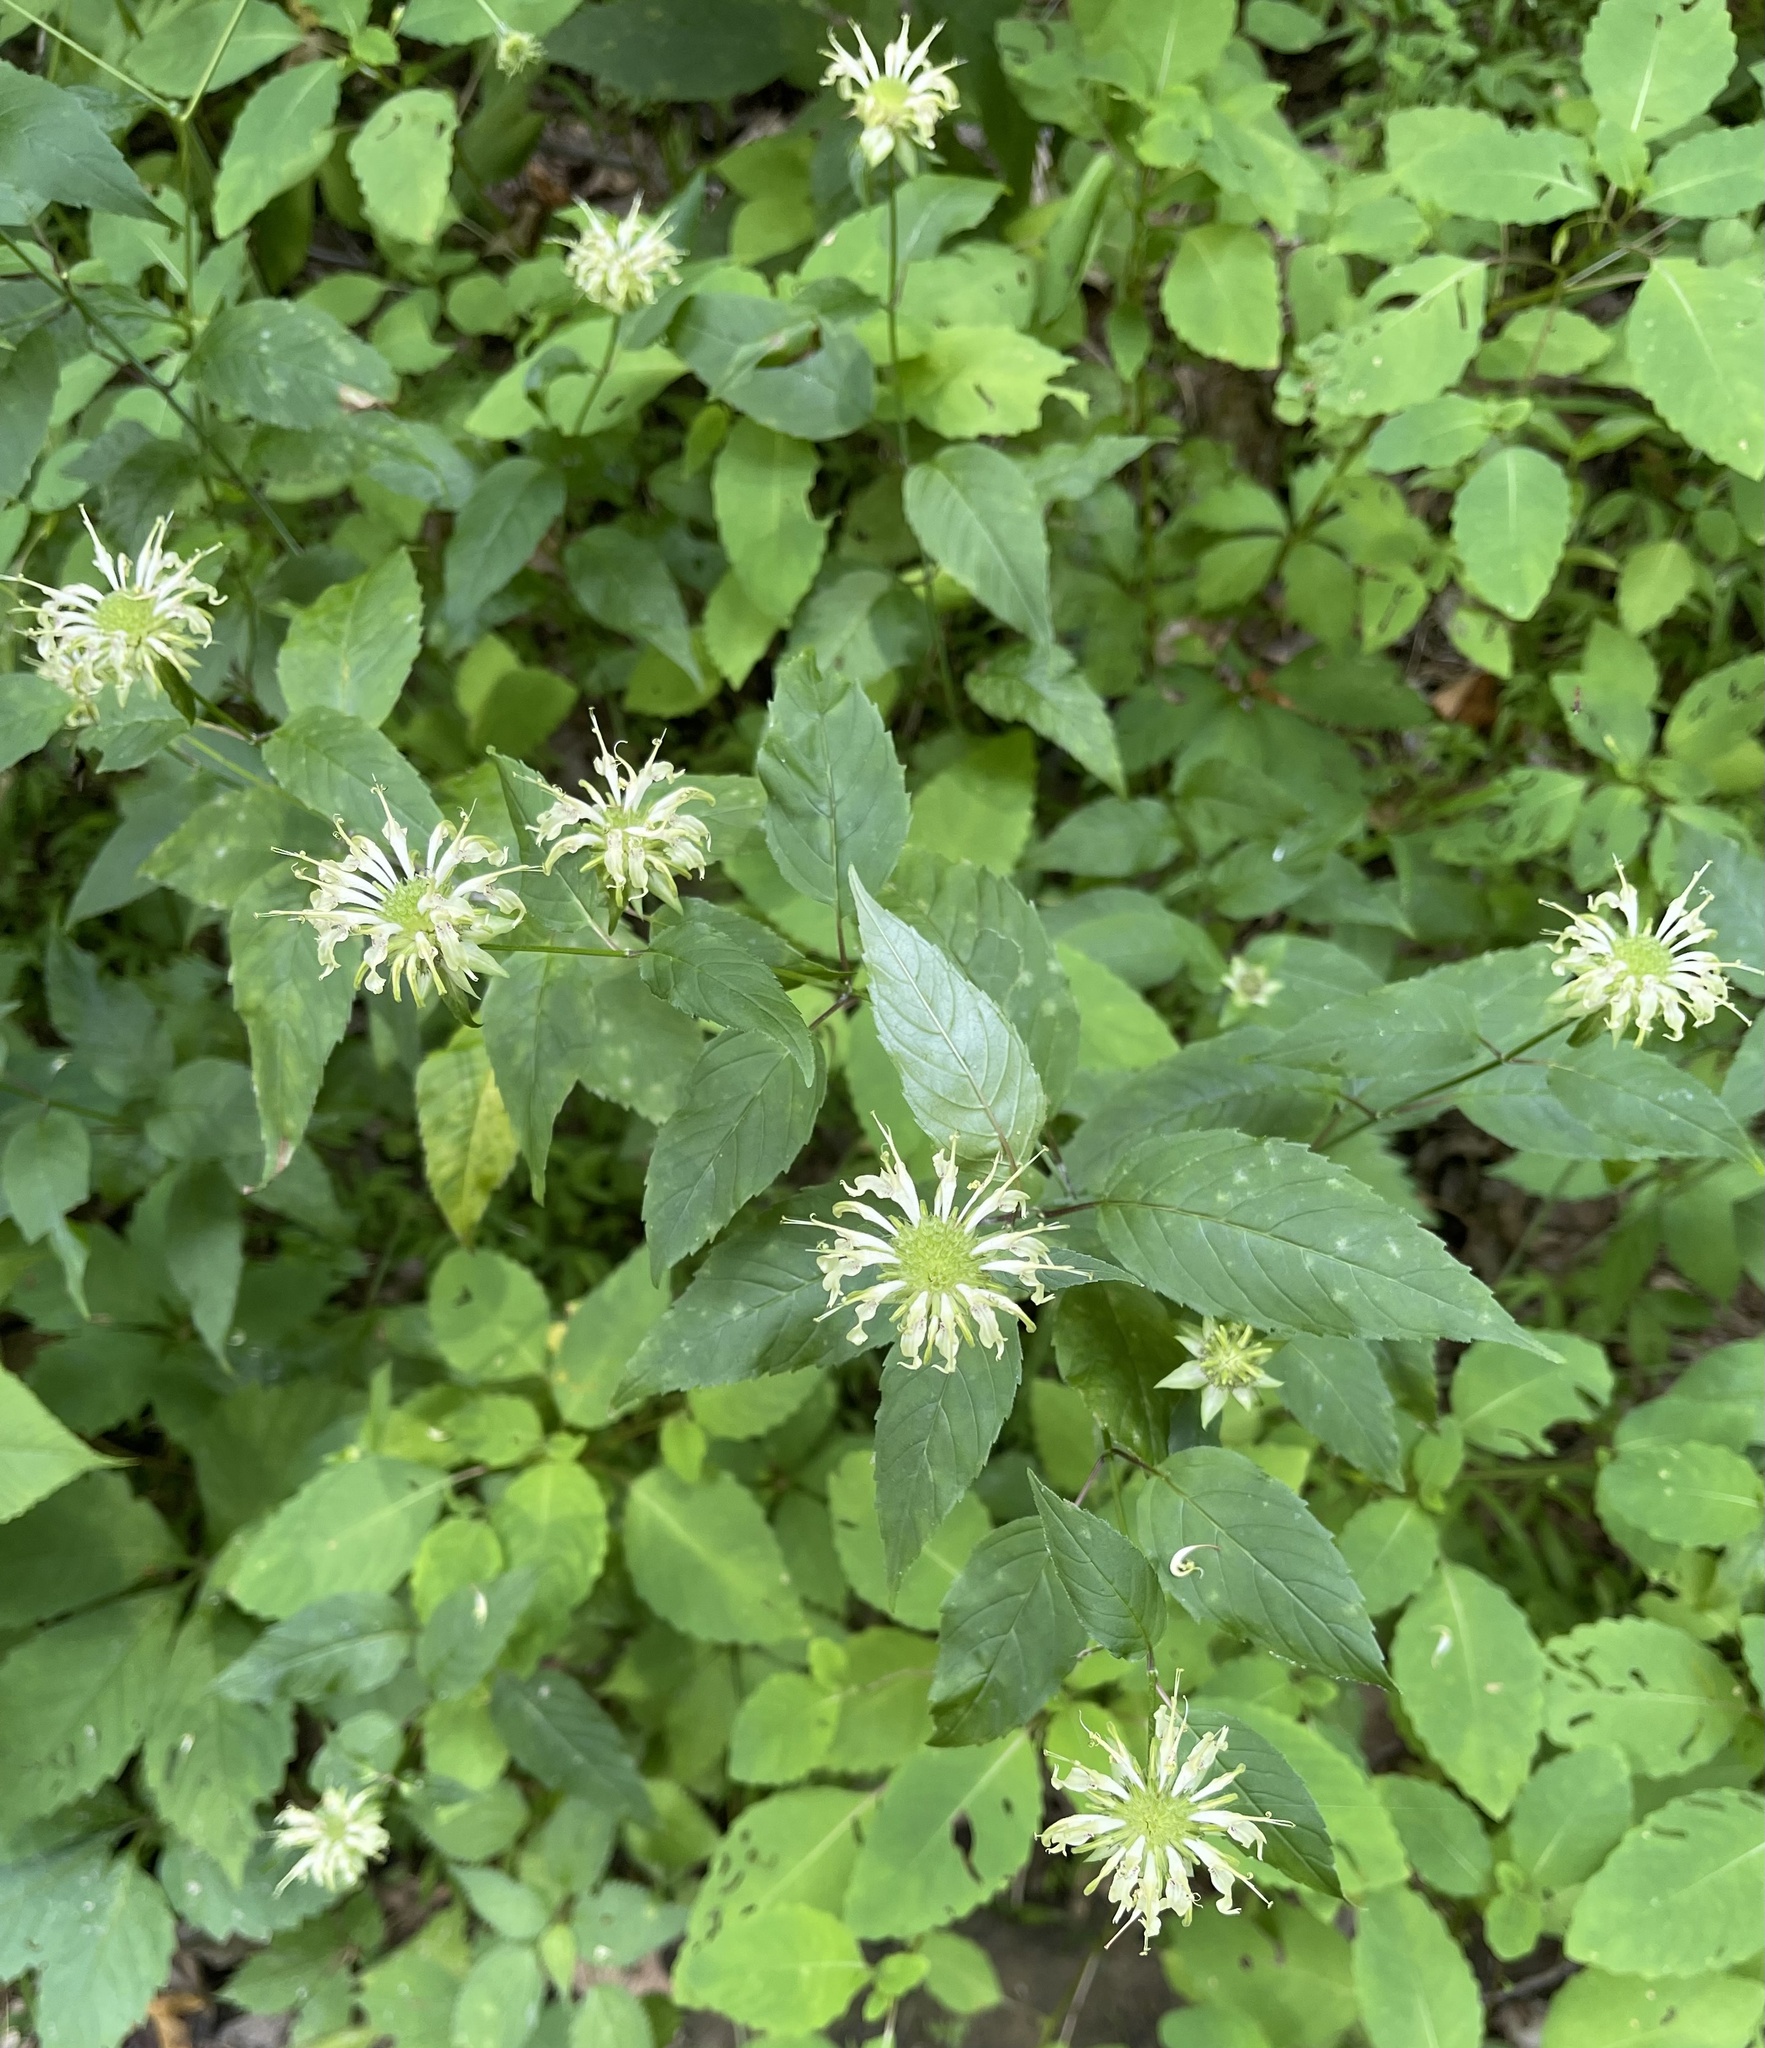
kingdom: Plantae
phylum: Tracheophyta
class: Magnoliopsida
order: Lamiales
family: Lamiaceae
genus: Monarda
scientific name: Monarda clinopodia
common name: Basil beebalm
